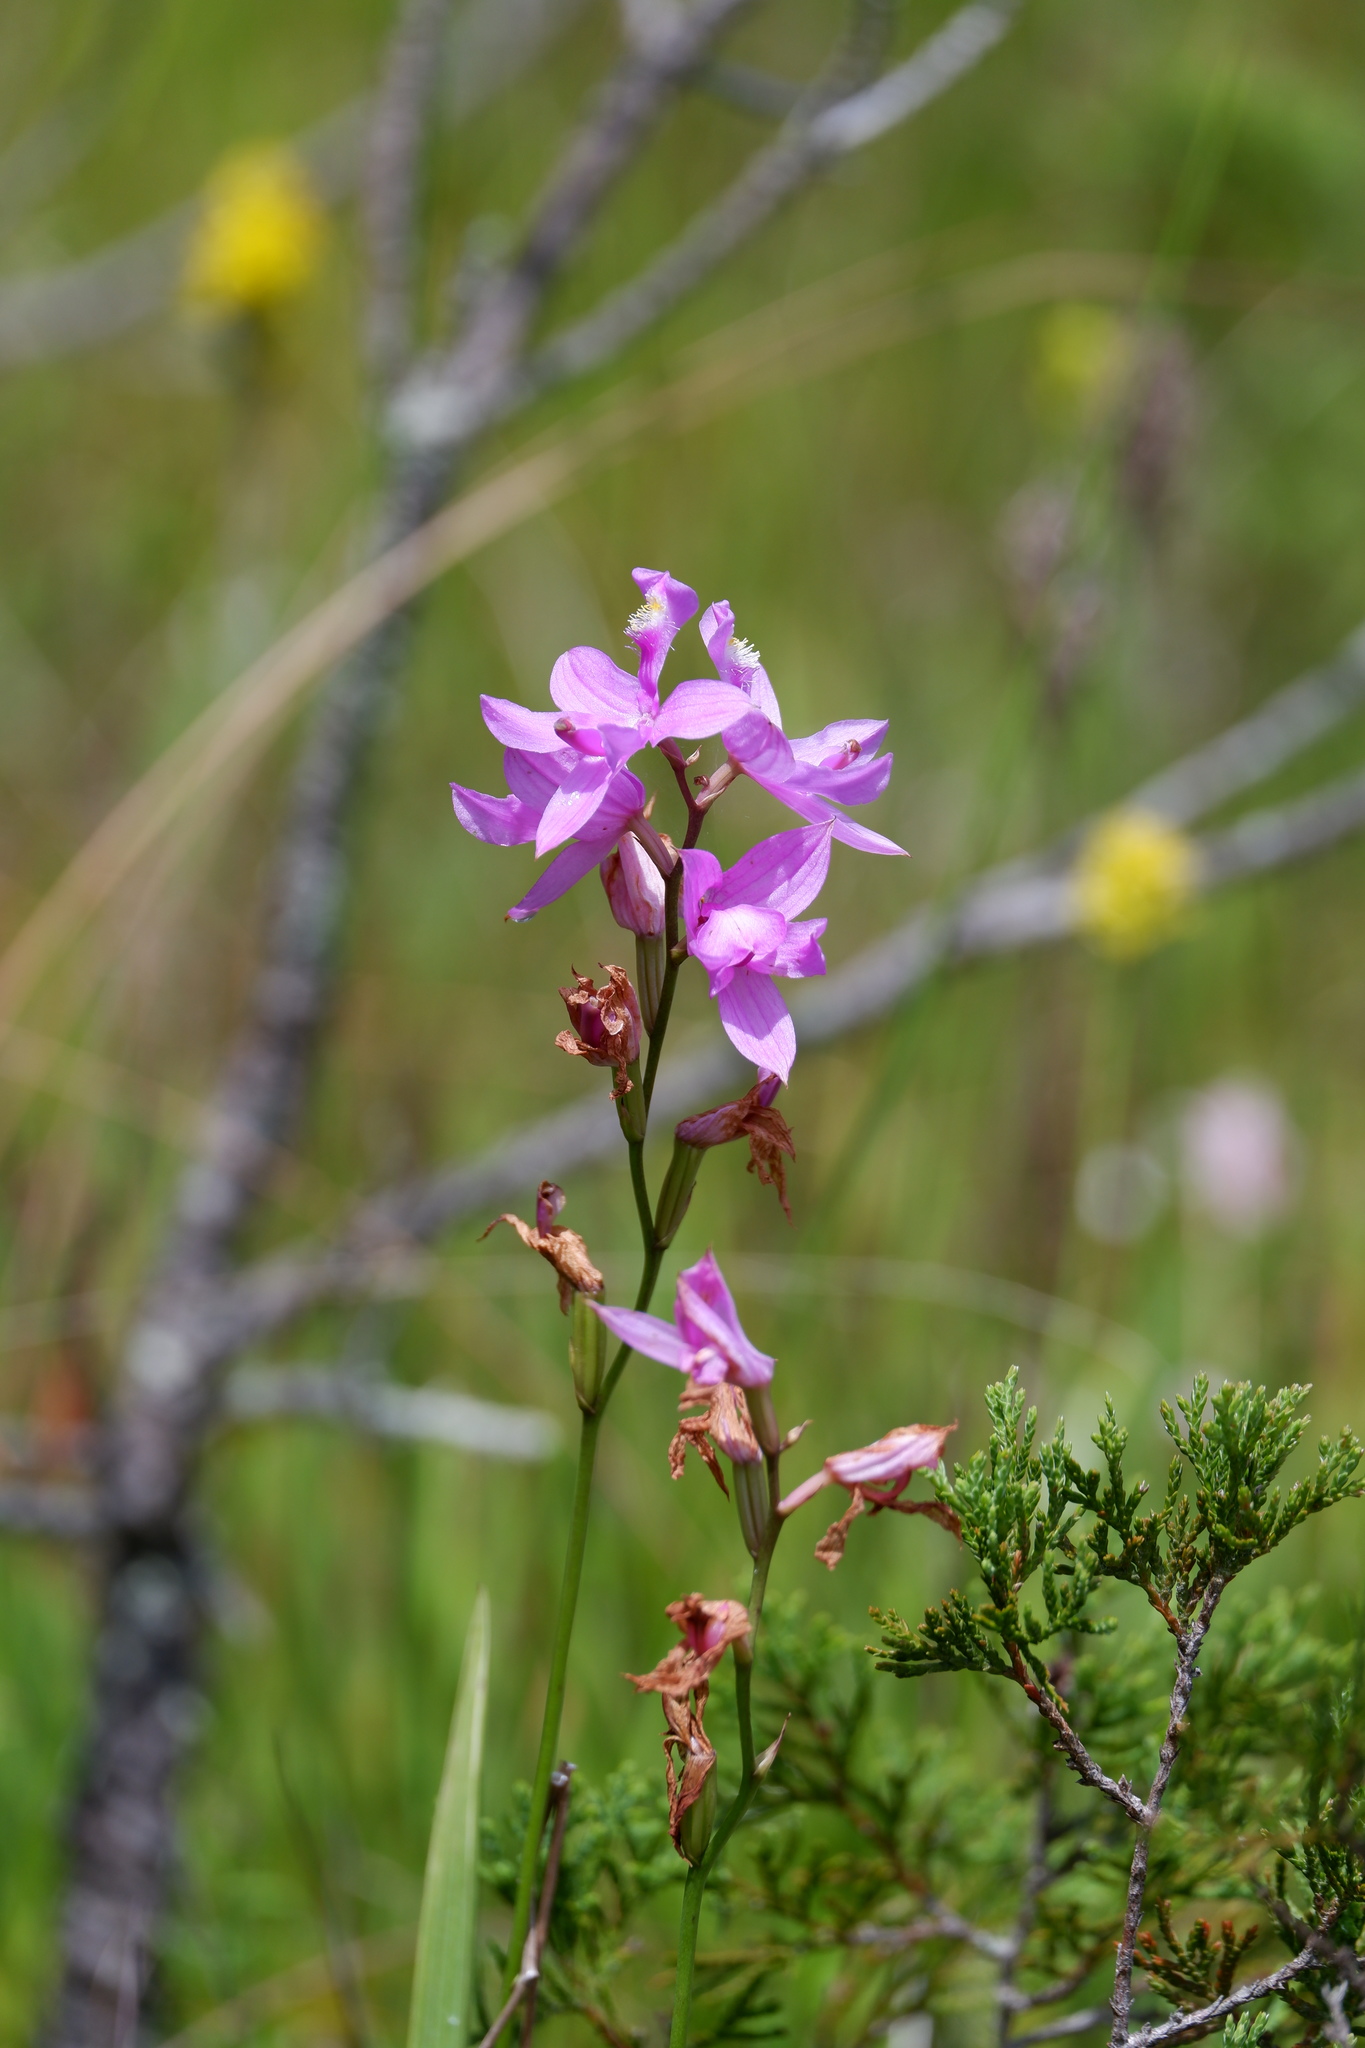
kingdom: Plantae
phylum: Tracheophyta
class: Liliopsida
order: Asparagales
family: Orchidaceae
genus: Calopogon
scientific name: Calopogon tuberosus
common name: Grass-pink
